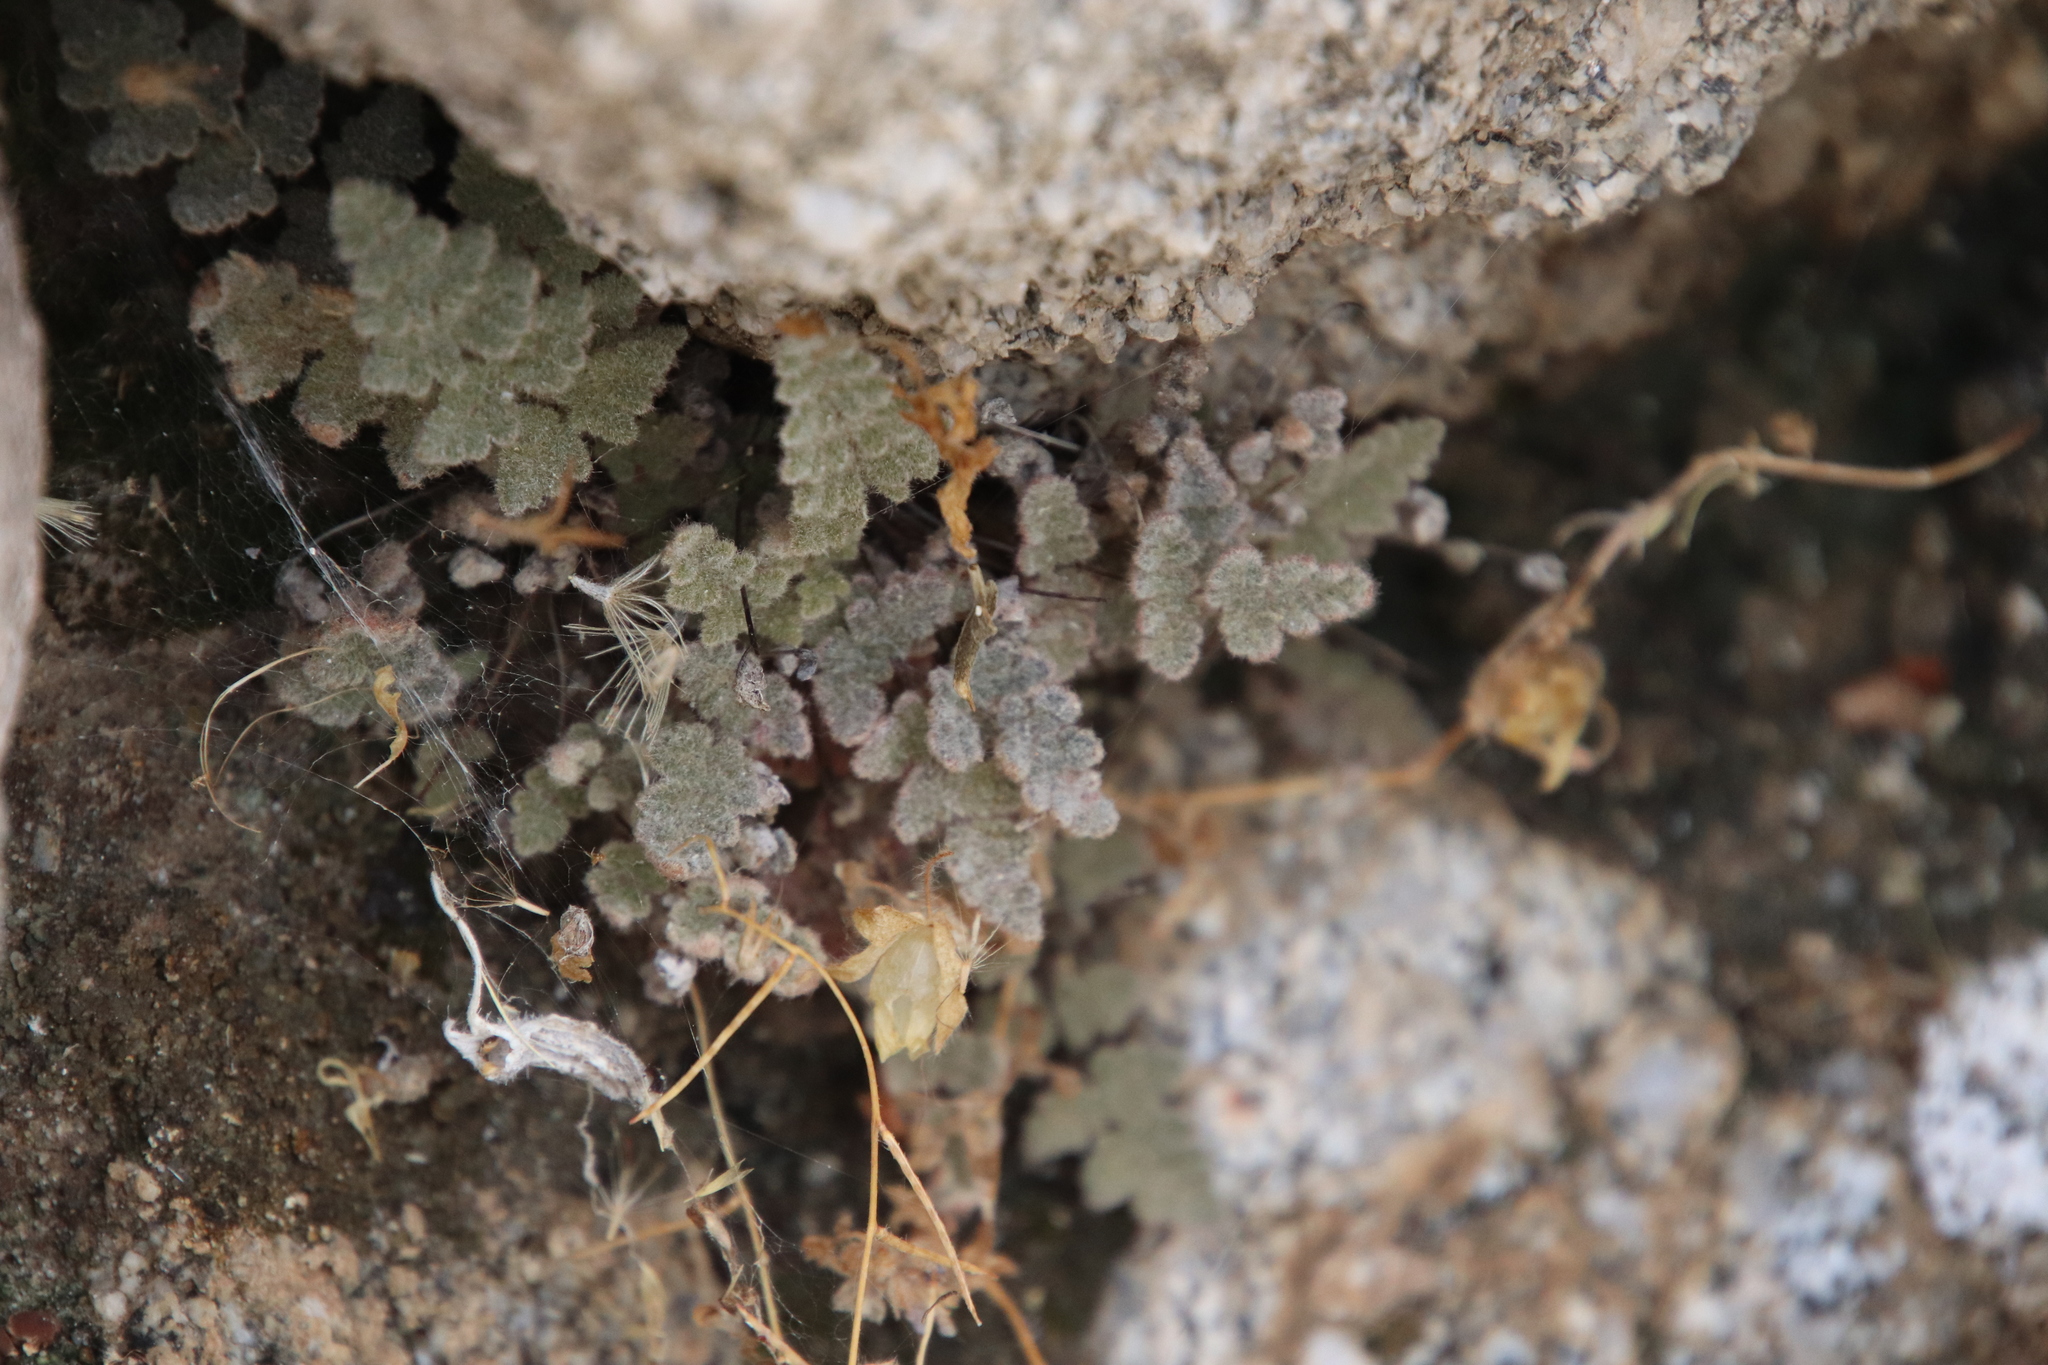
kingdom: Plantae
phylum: Tracheophyta
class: Polypodiopsida
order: Polypodiales
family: Pteridaceae
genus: Myriopteris
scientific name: Myriopteris parryi
